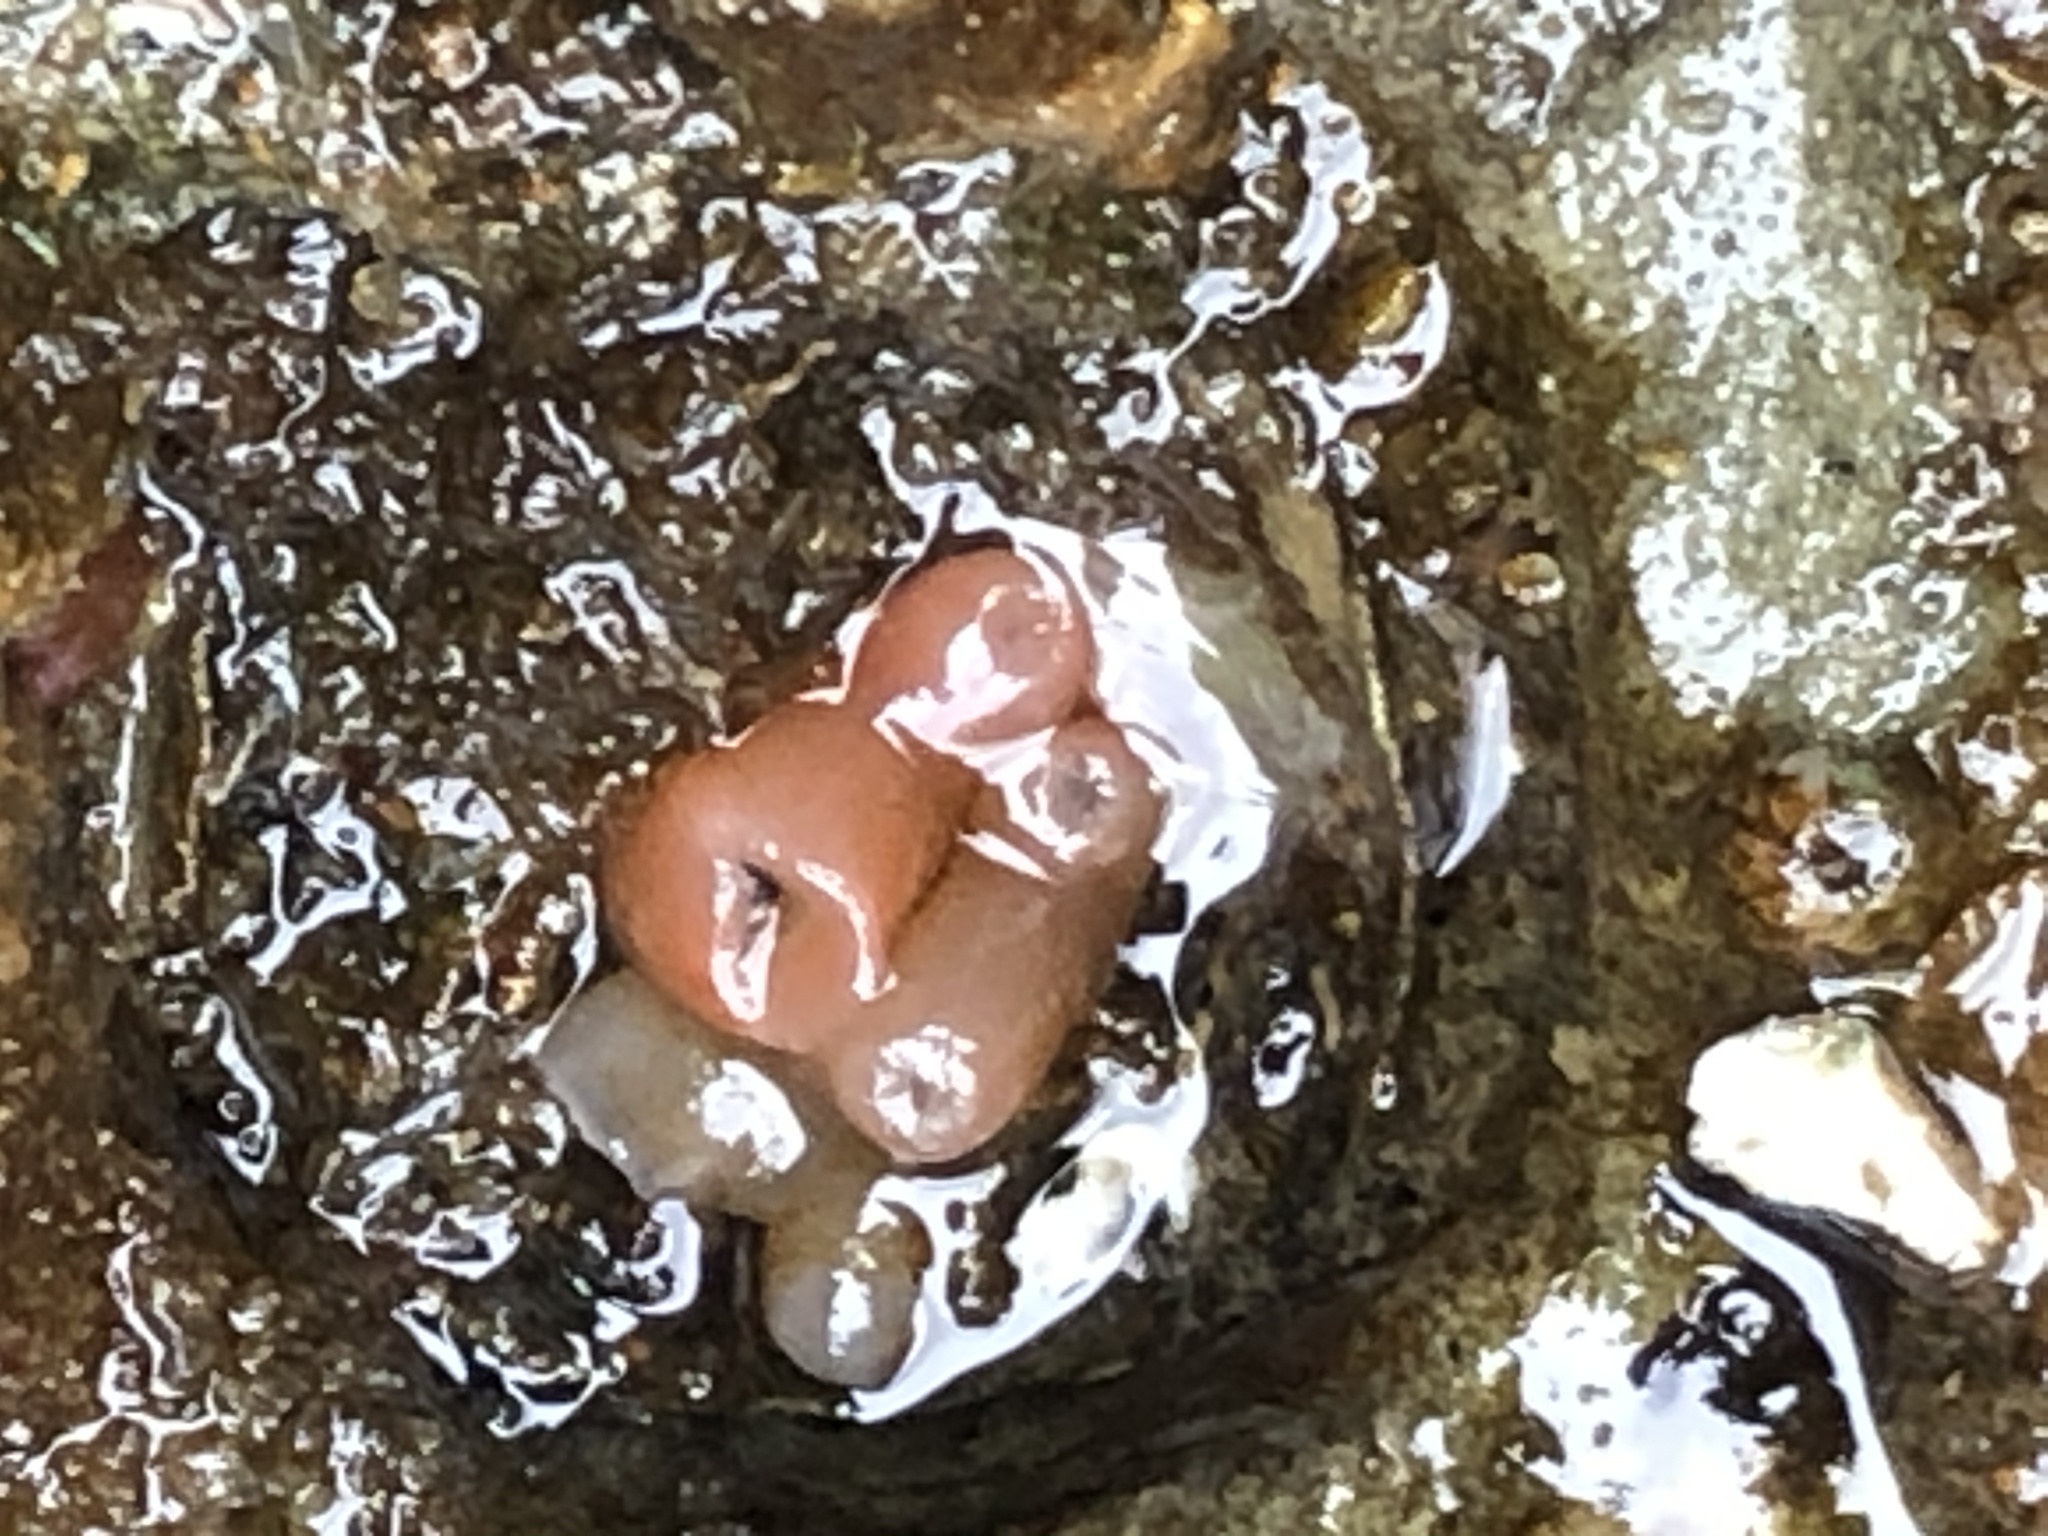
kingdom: Animalia
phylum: Mollusca
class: Bivalvia
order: Adapedonta
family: Hiatellidae
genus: Hiatella
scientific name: Hiatella arctica
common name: Arctic hiatella
